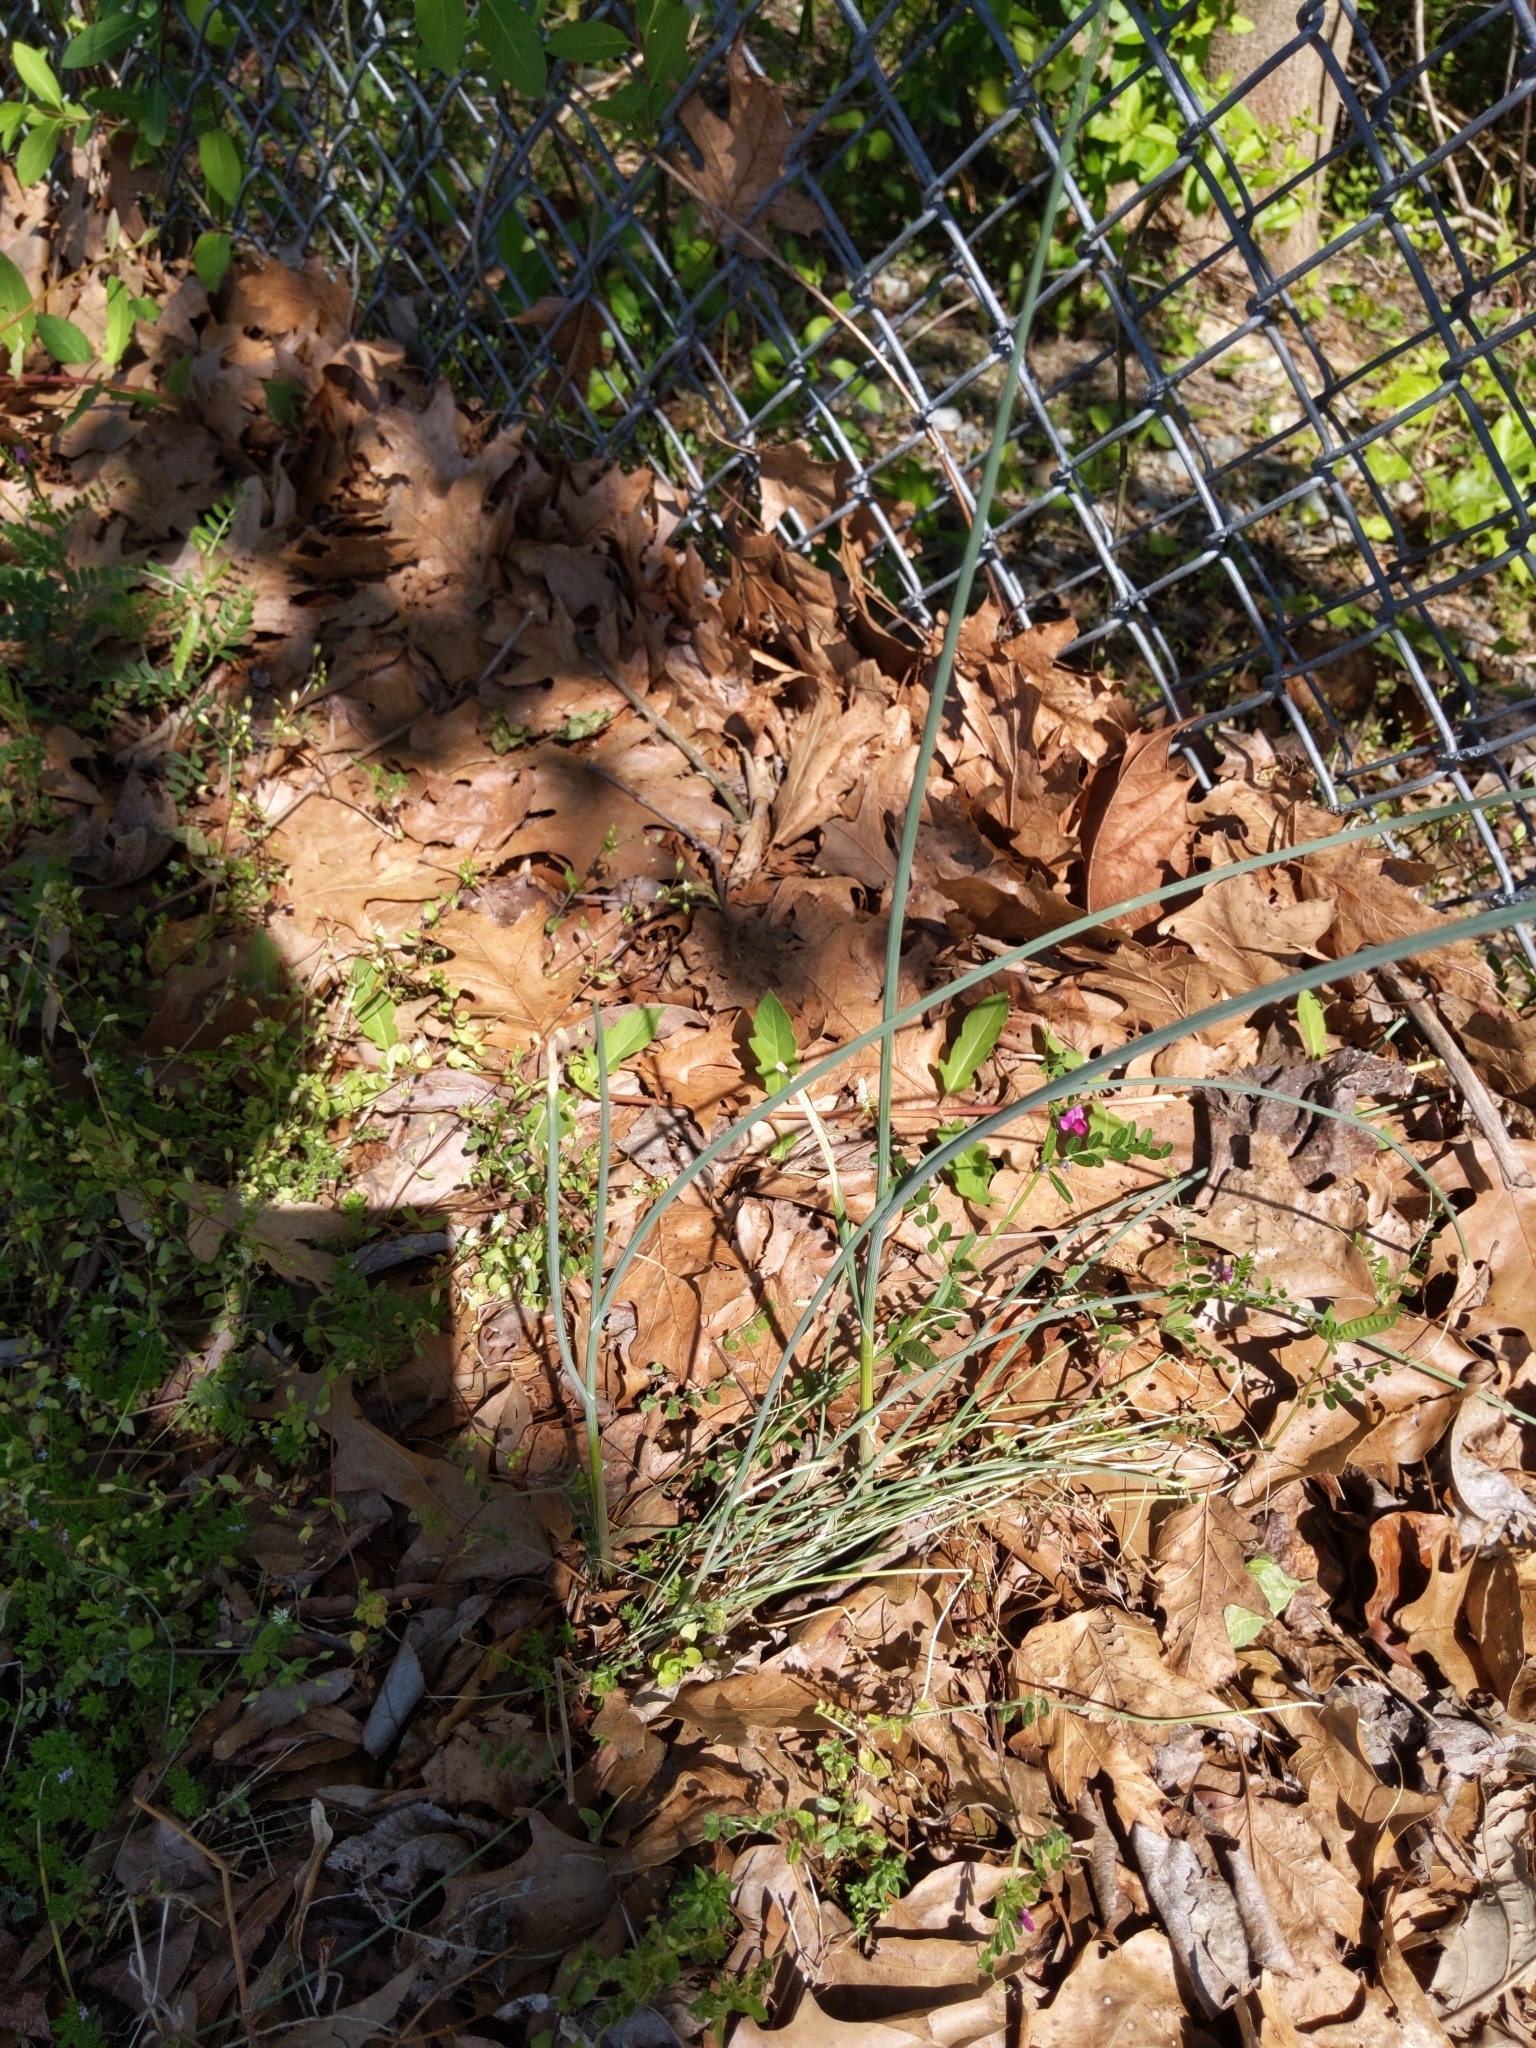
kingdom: Plantae
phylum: Tracheophyta
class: Liliopsida
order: Asparagales
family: Amaryllidaceae
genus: Allium
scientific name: Allium vineale
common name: Crow garlic
